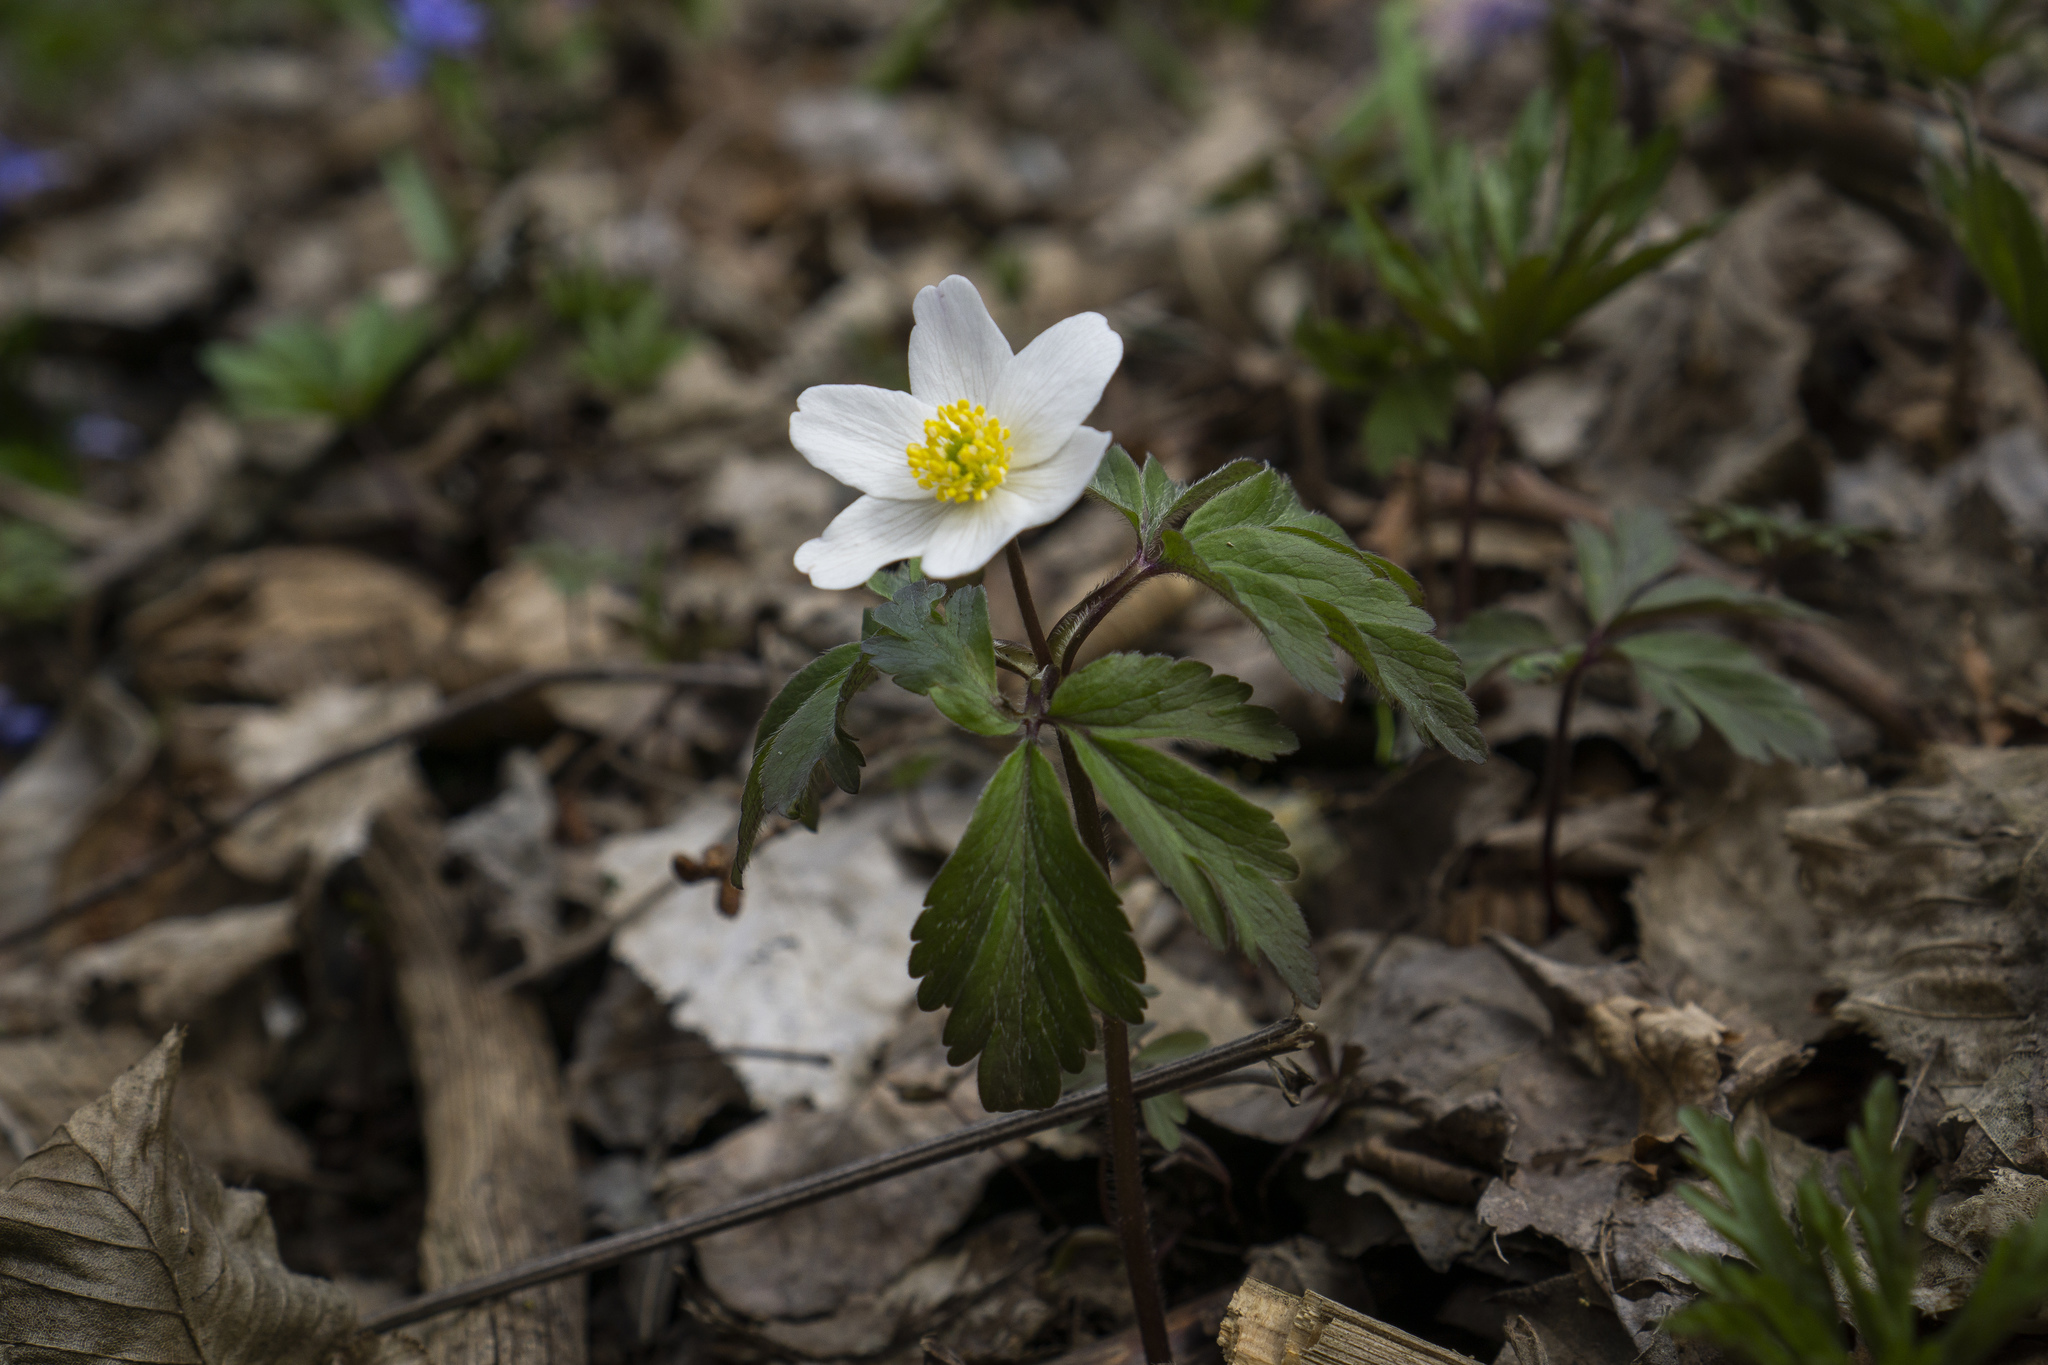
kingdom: Plantae
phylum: Tracheophyta
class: Magnoliopsida
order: Ranunculales
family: Ranunculaceae
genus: Anemone
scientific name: Anemone nemorosa
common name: Wood anemone
